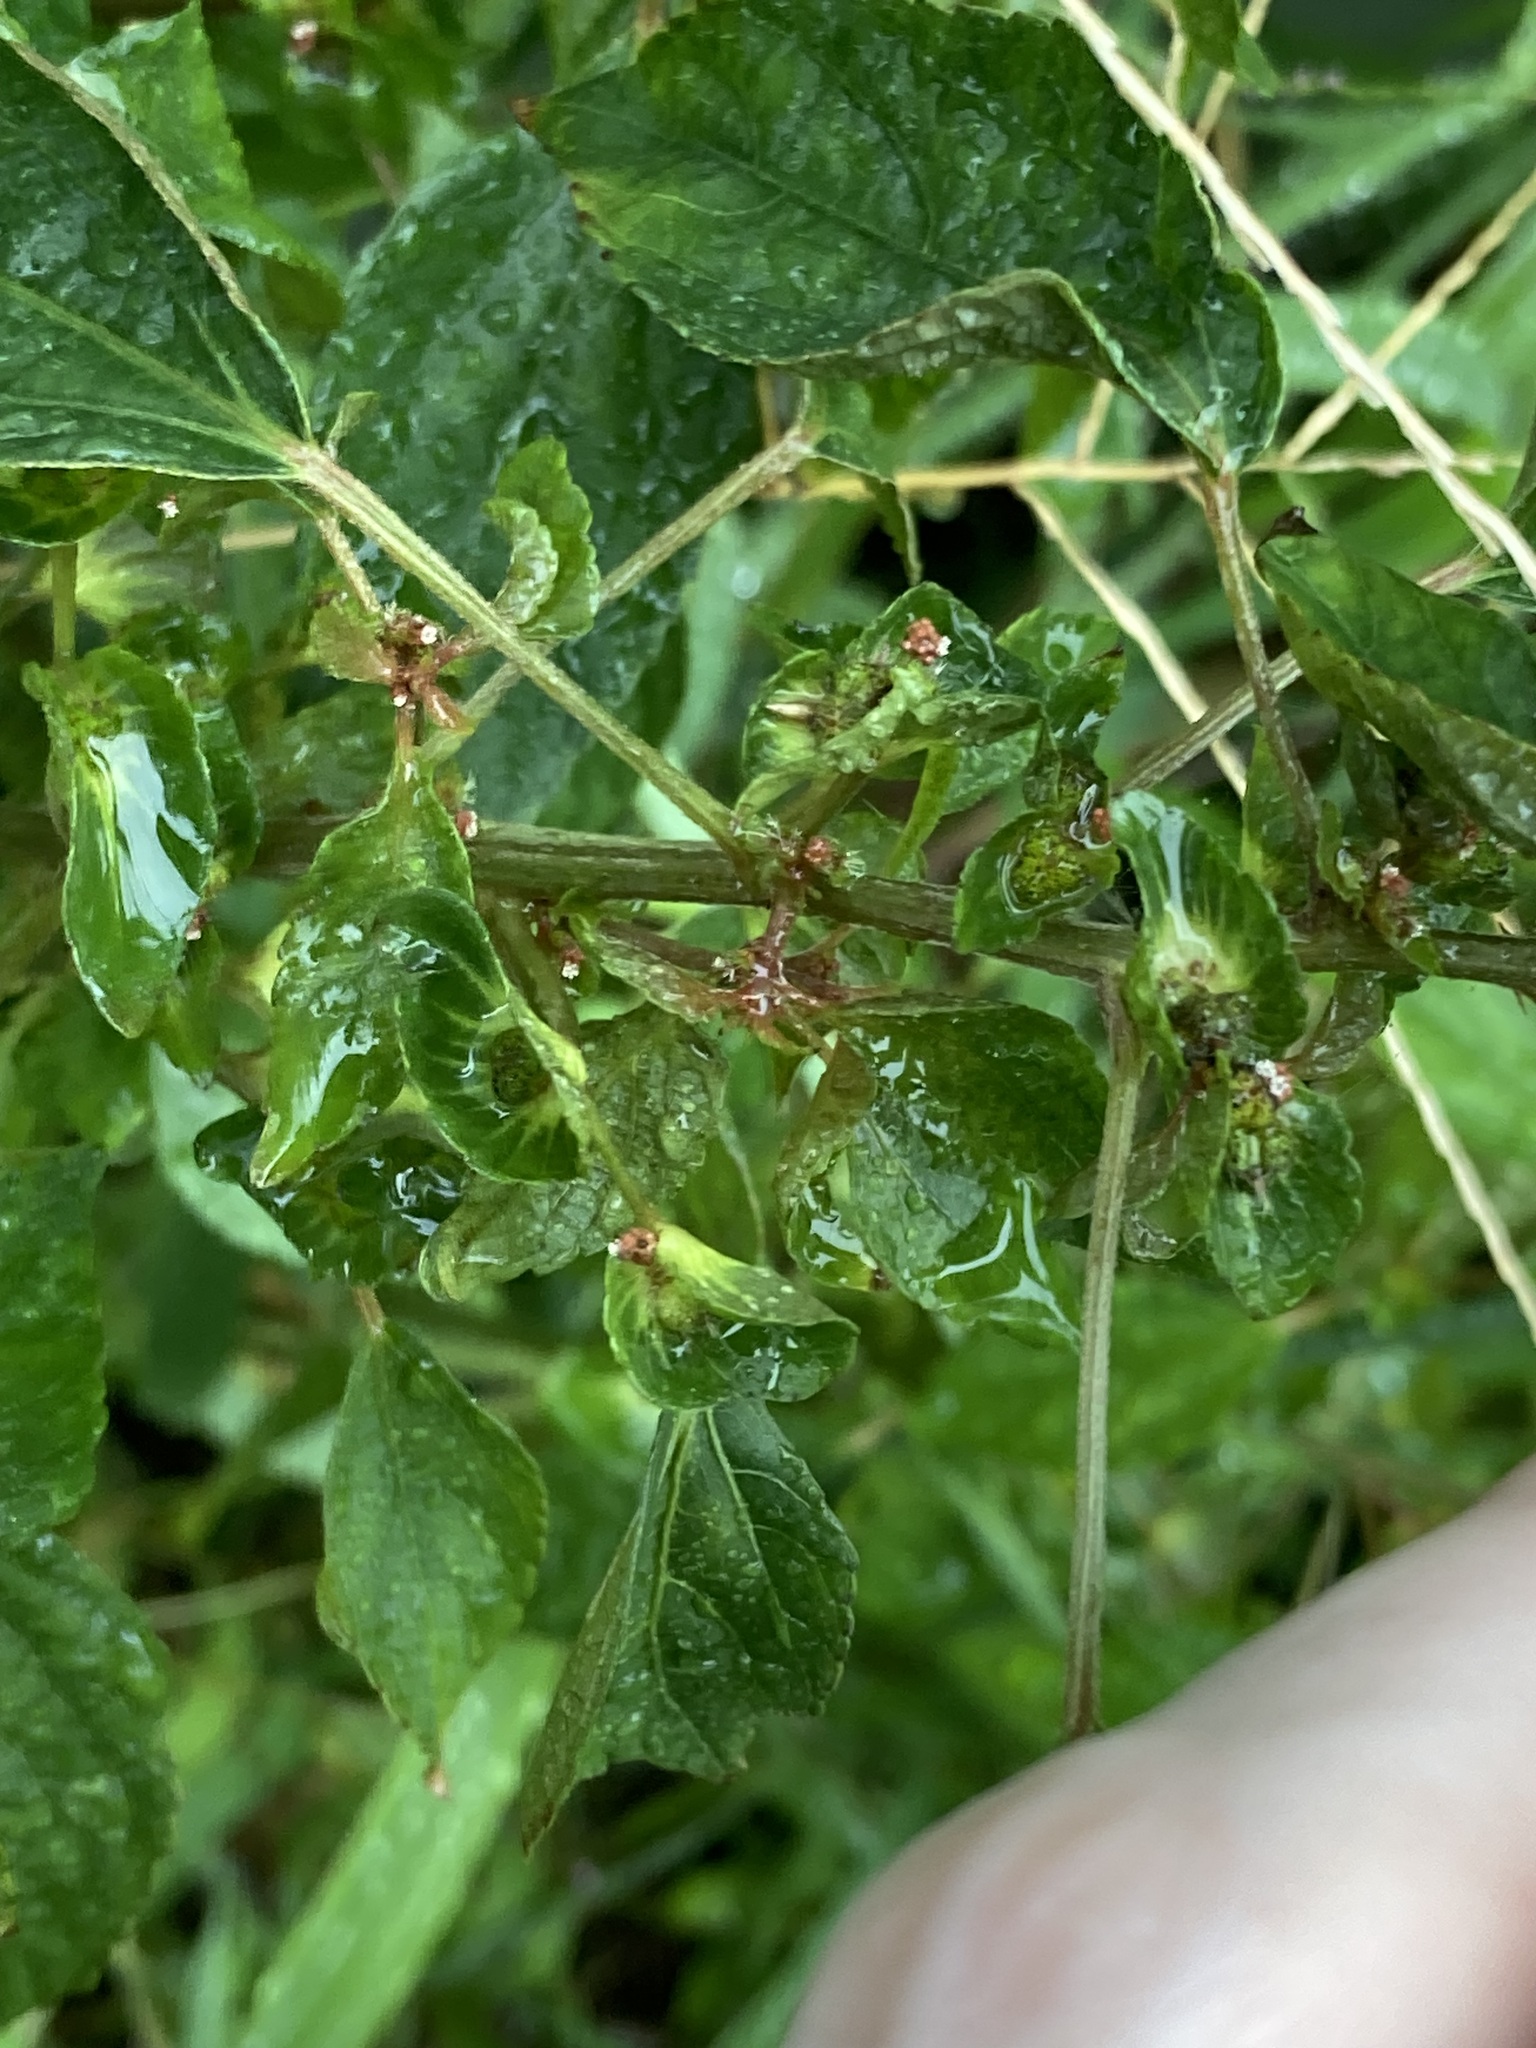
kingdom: Plantae
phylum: Tracheophyta
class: Magnoliopsida
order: Malpighiales
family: Euphorbiaceae
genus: Acalypha
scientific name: Acalypha australis
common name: Asian copperleaf
